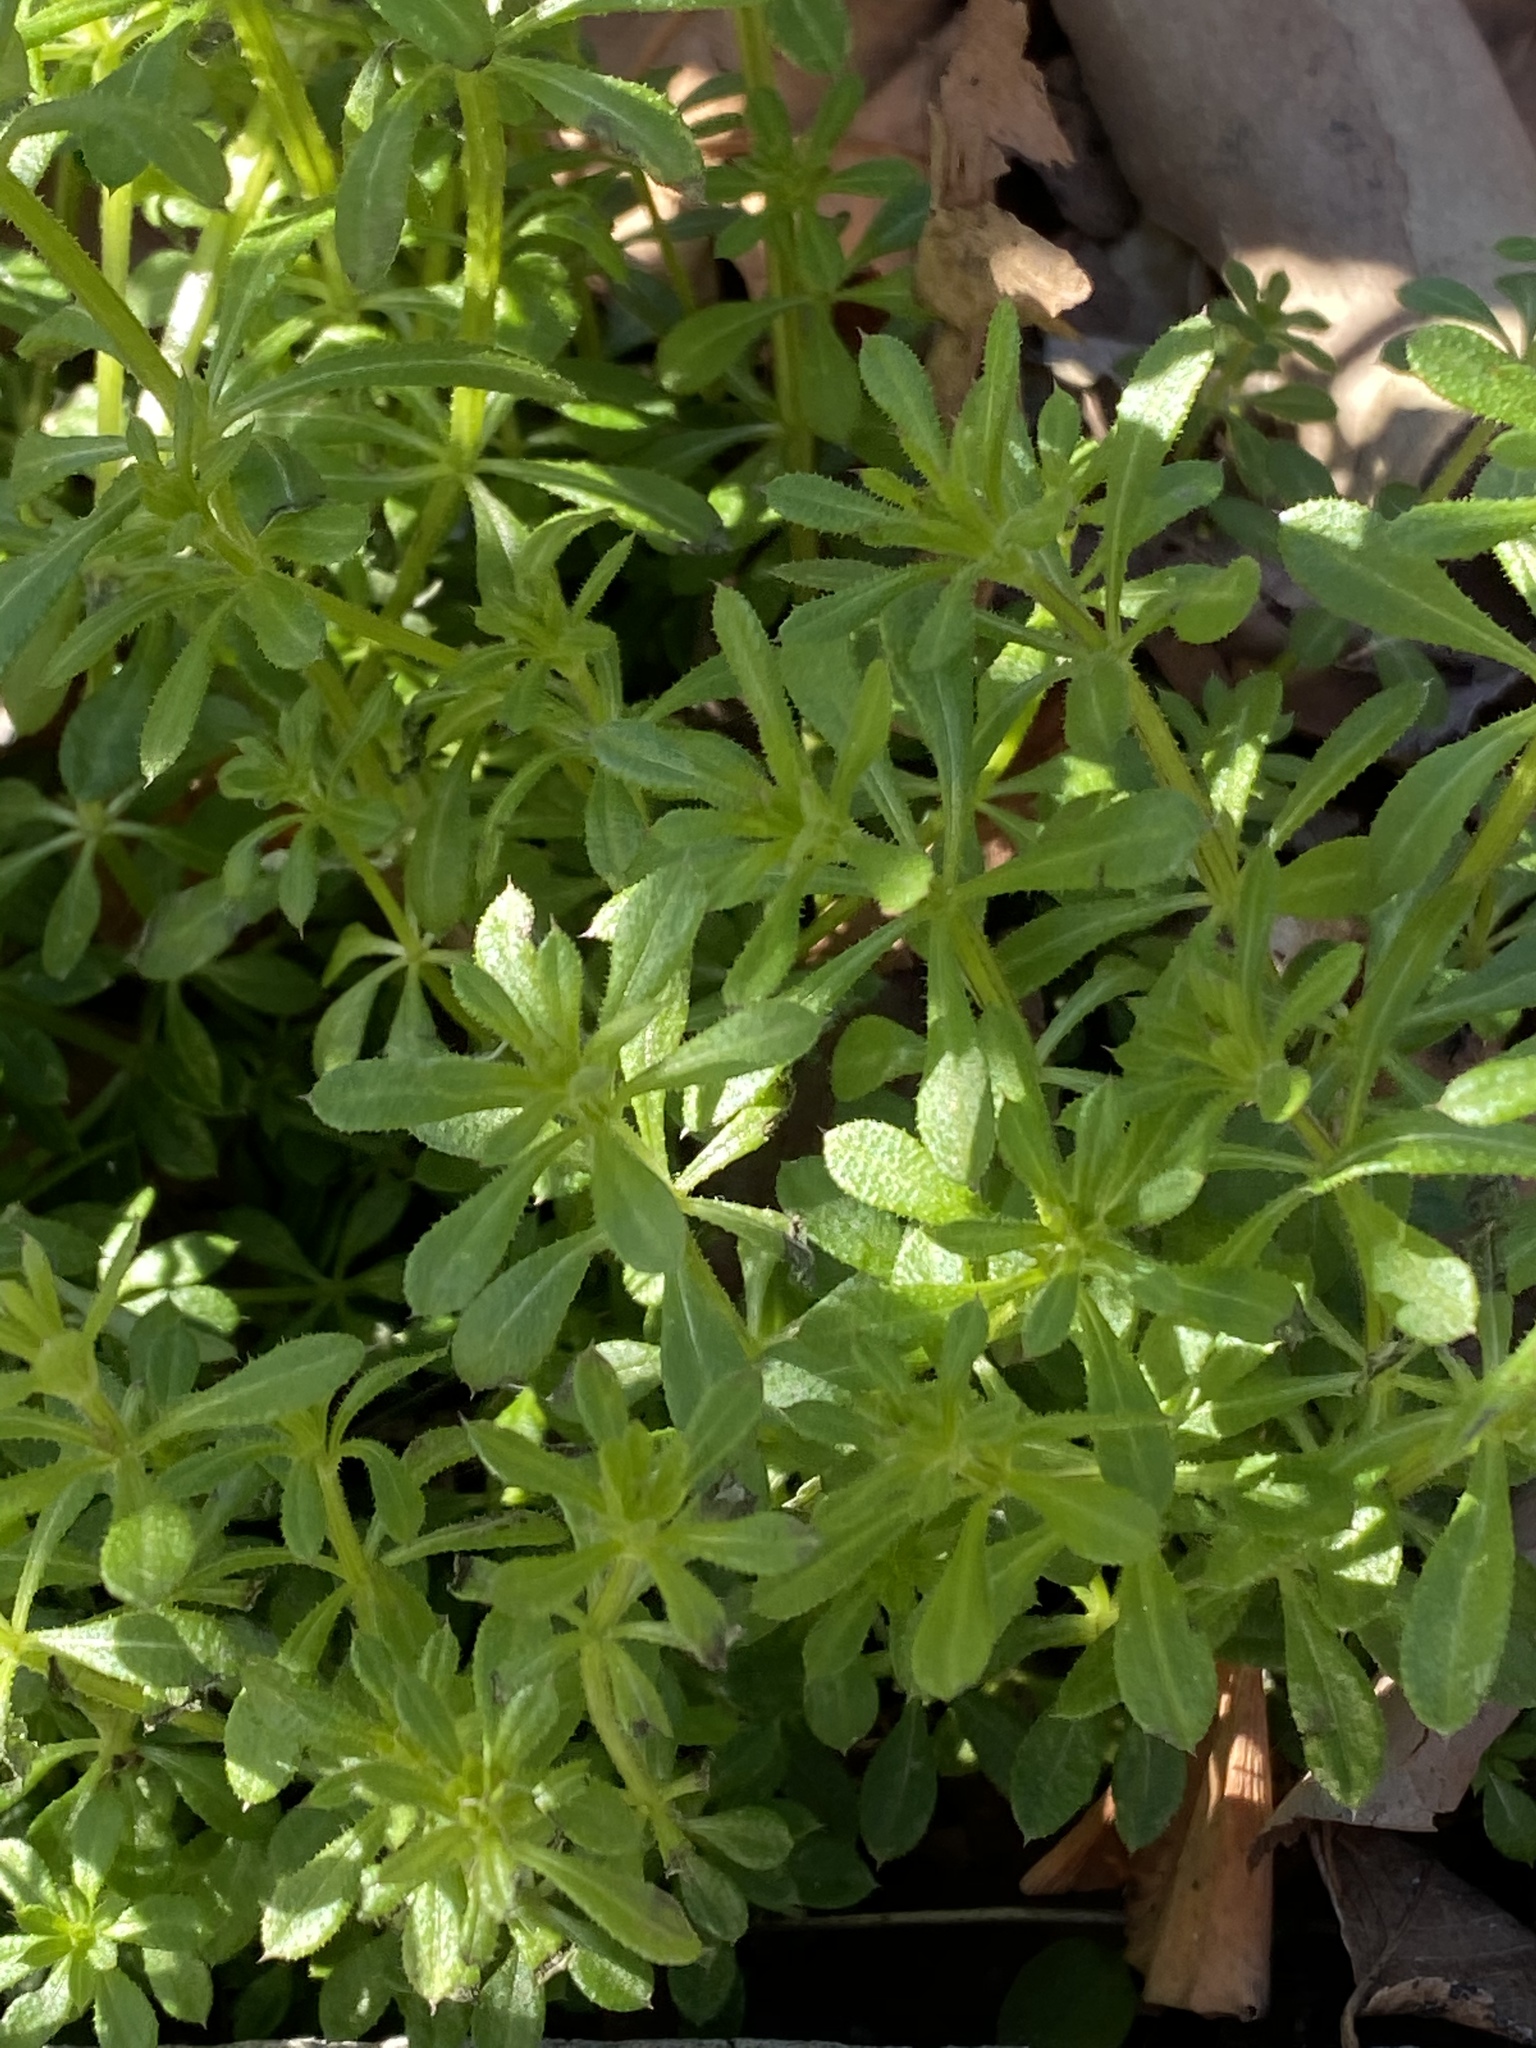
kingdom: Plantae
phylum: Tracheophyta
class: Magnoliopsida
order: Gentianales
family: Rubiaceae
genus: Galium
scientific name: Galium aparine
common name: Cleavers
